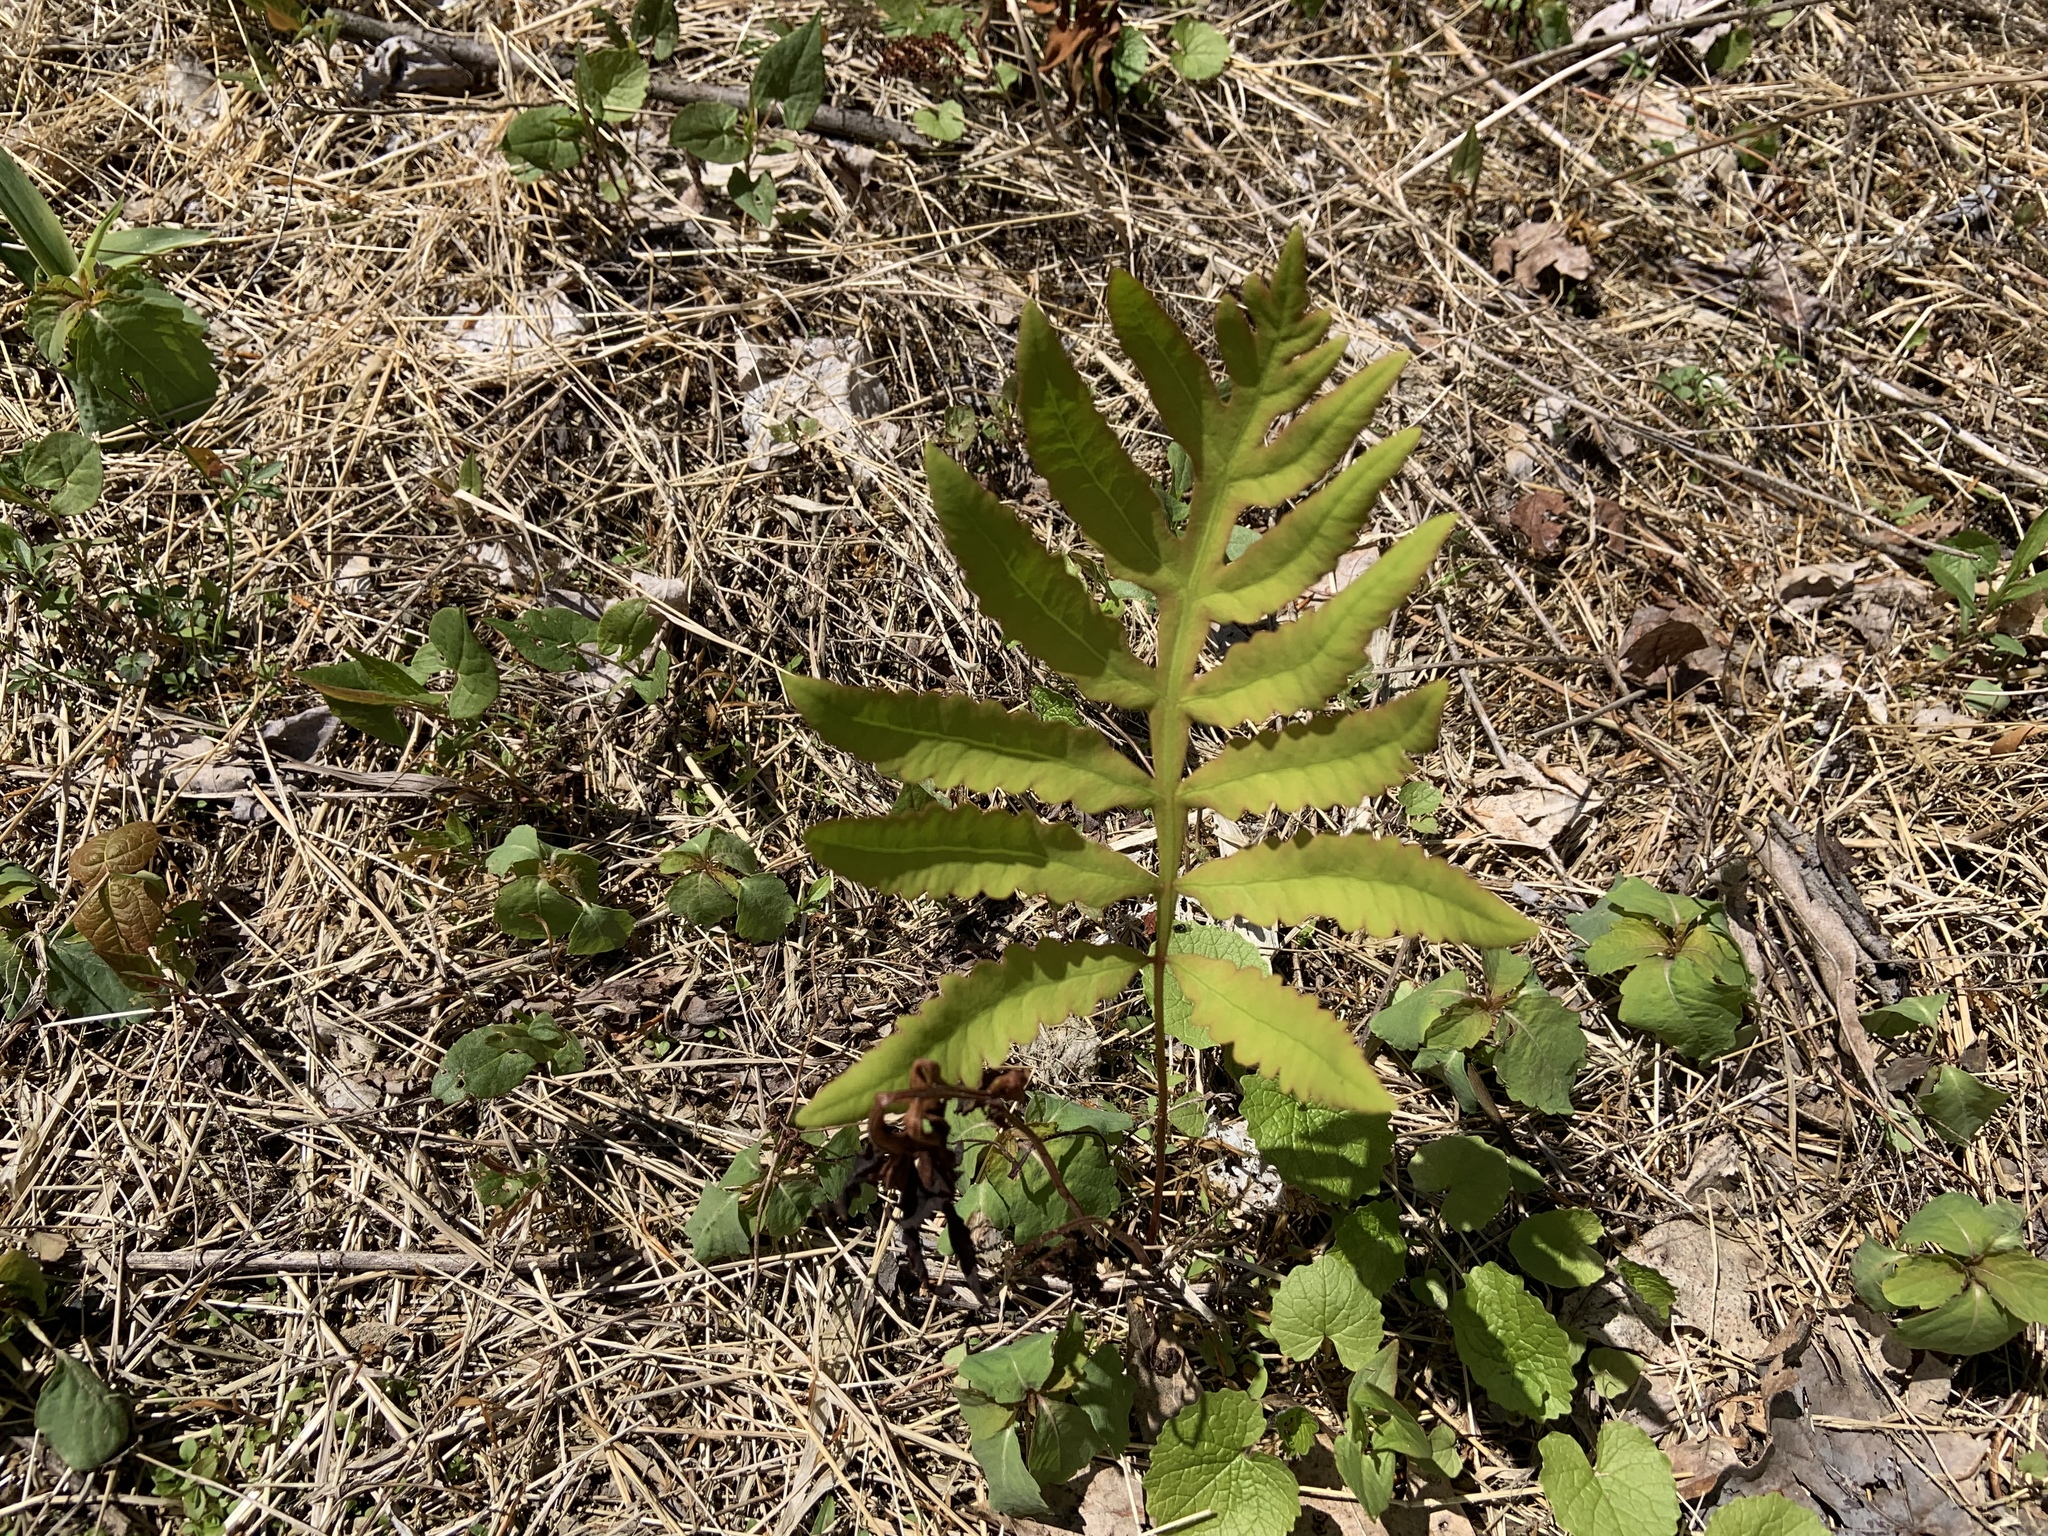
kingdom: Plantae
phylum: Tracheophyta
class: Polypodiopsida
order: Polypodiales
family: Onocleaceae
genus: Onoclea
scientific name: Onoclea sensibilis
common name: Sensitive fern
